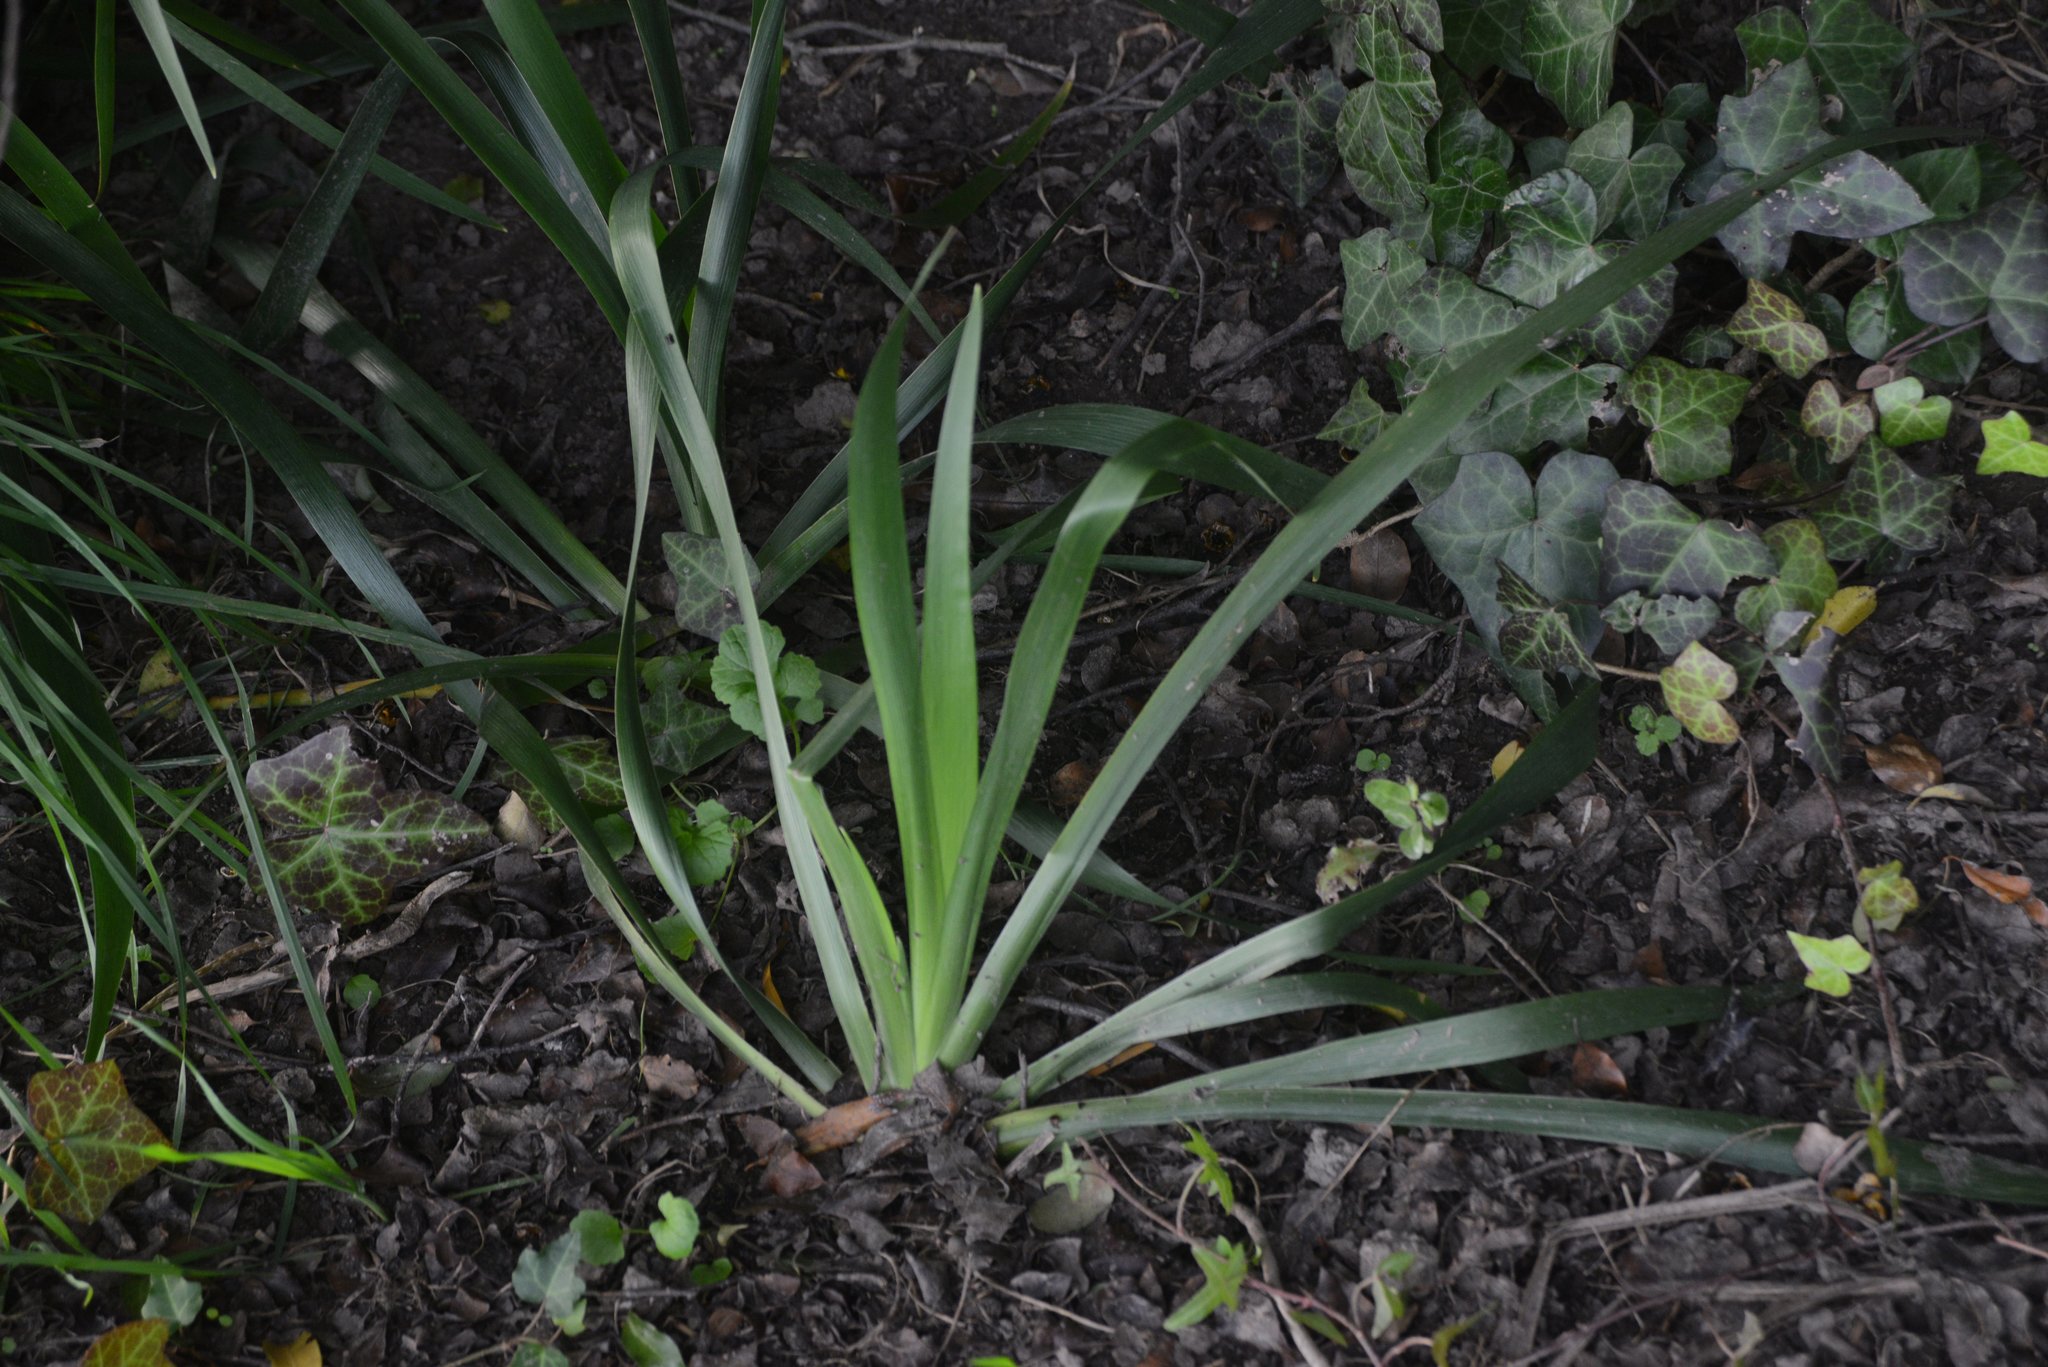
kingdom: Plantae
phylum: Tracheophyta
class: Liliopsida
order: Asparagales
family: Iridaceae
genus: Iris
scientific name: Iris foetidissima
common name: Stinking iris
